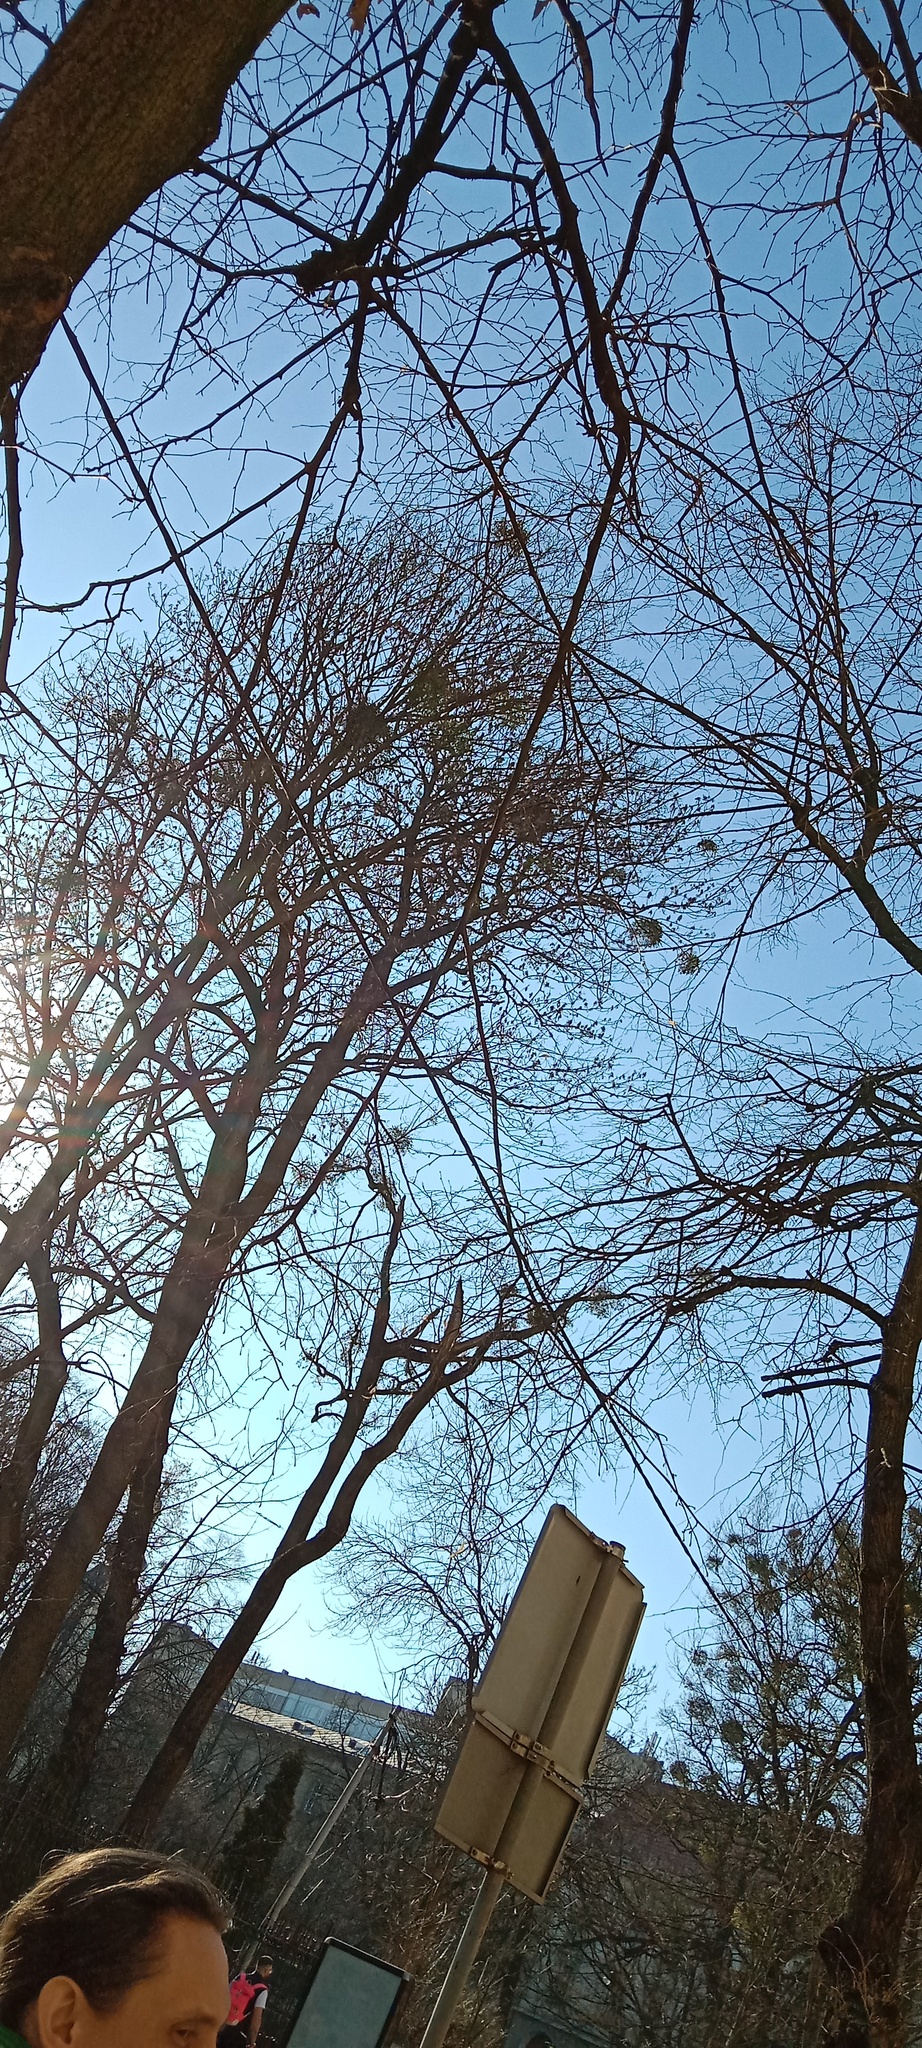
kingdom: Plantae
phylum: Tracheophyta
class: Magnoliopsida
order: Santalales
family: Viscaceae
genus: Viscum
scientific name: Viscum album
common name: Mistletoe
